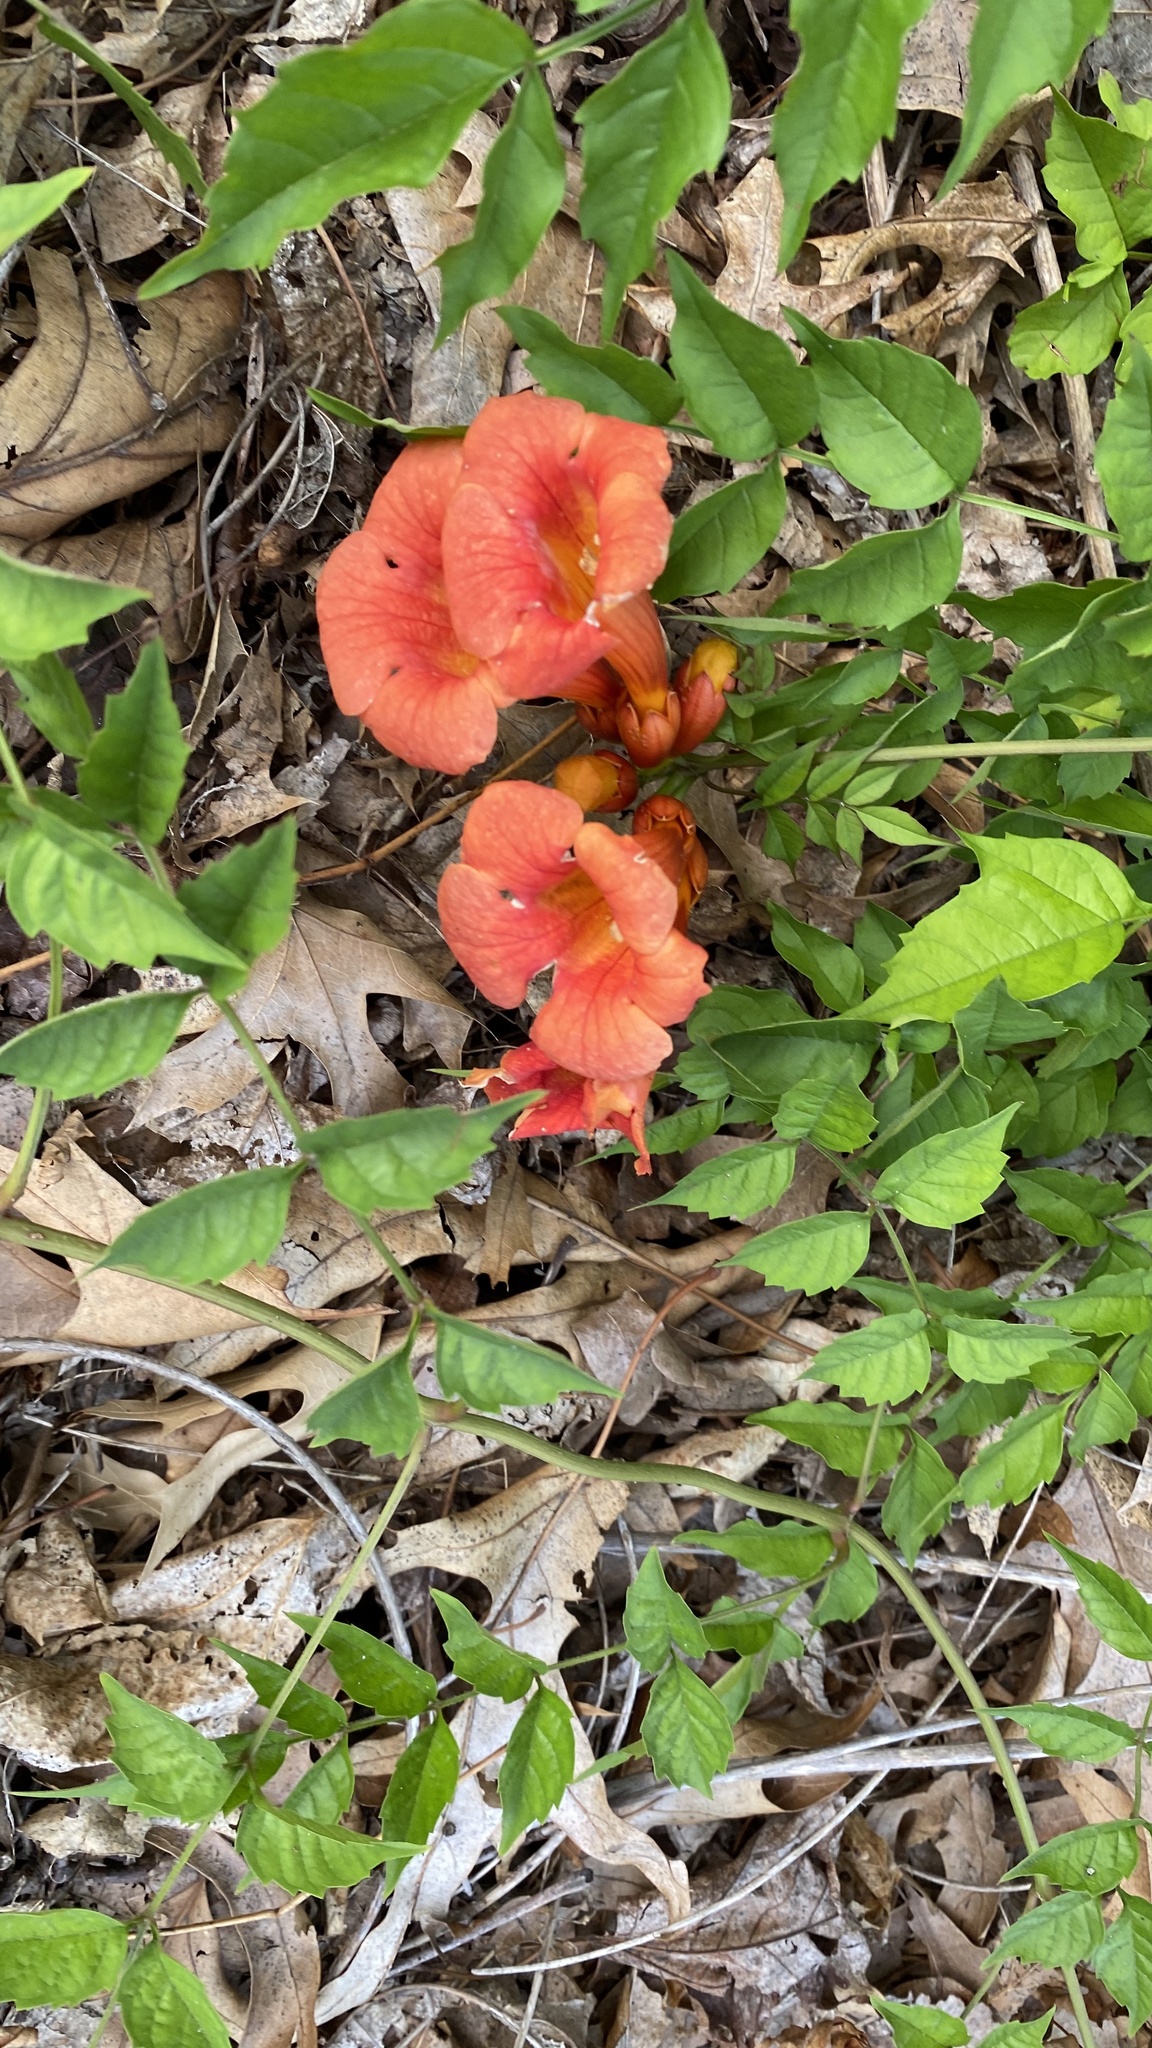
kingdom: Plantae
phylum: Tracheophyta
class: Magnoliopsida
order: Lamiales
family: Bignoniaceae
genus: Campsis
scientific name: Campsis radicans
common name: Trumpet-creeper
